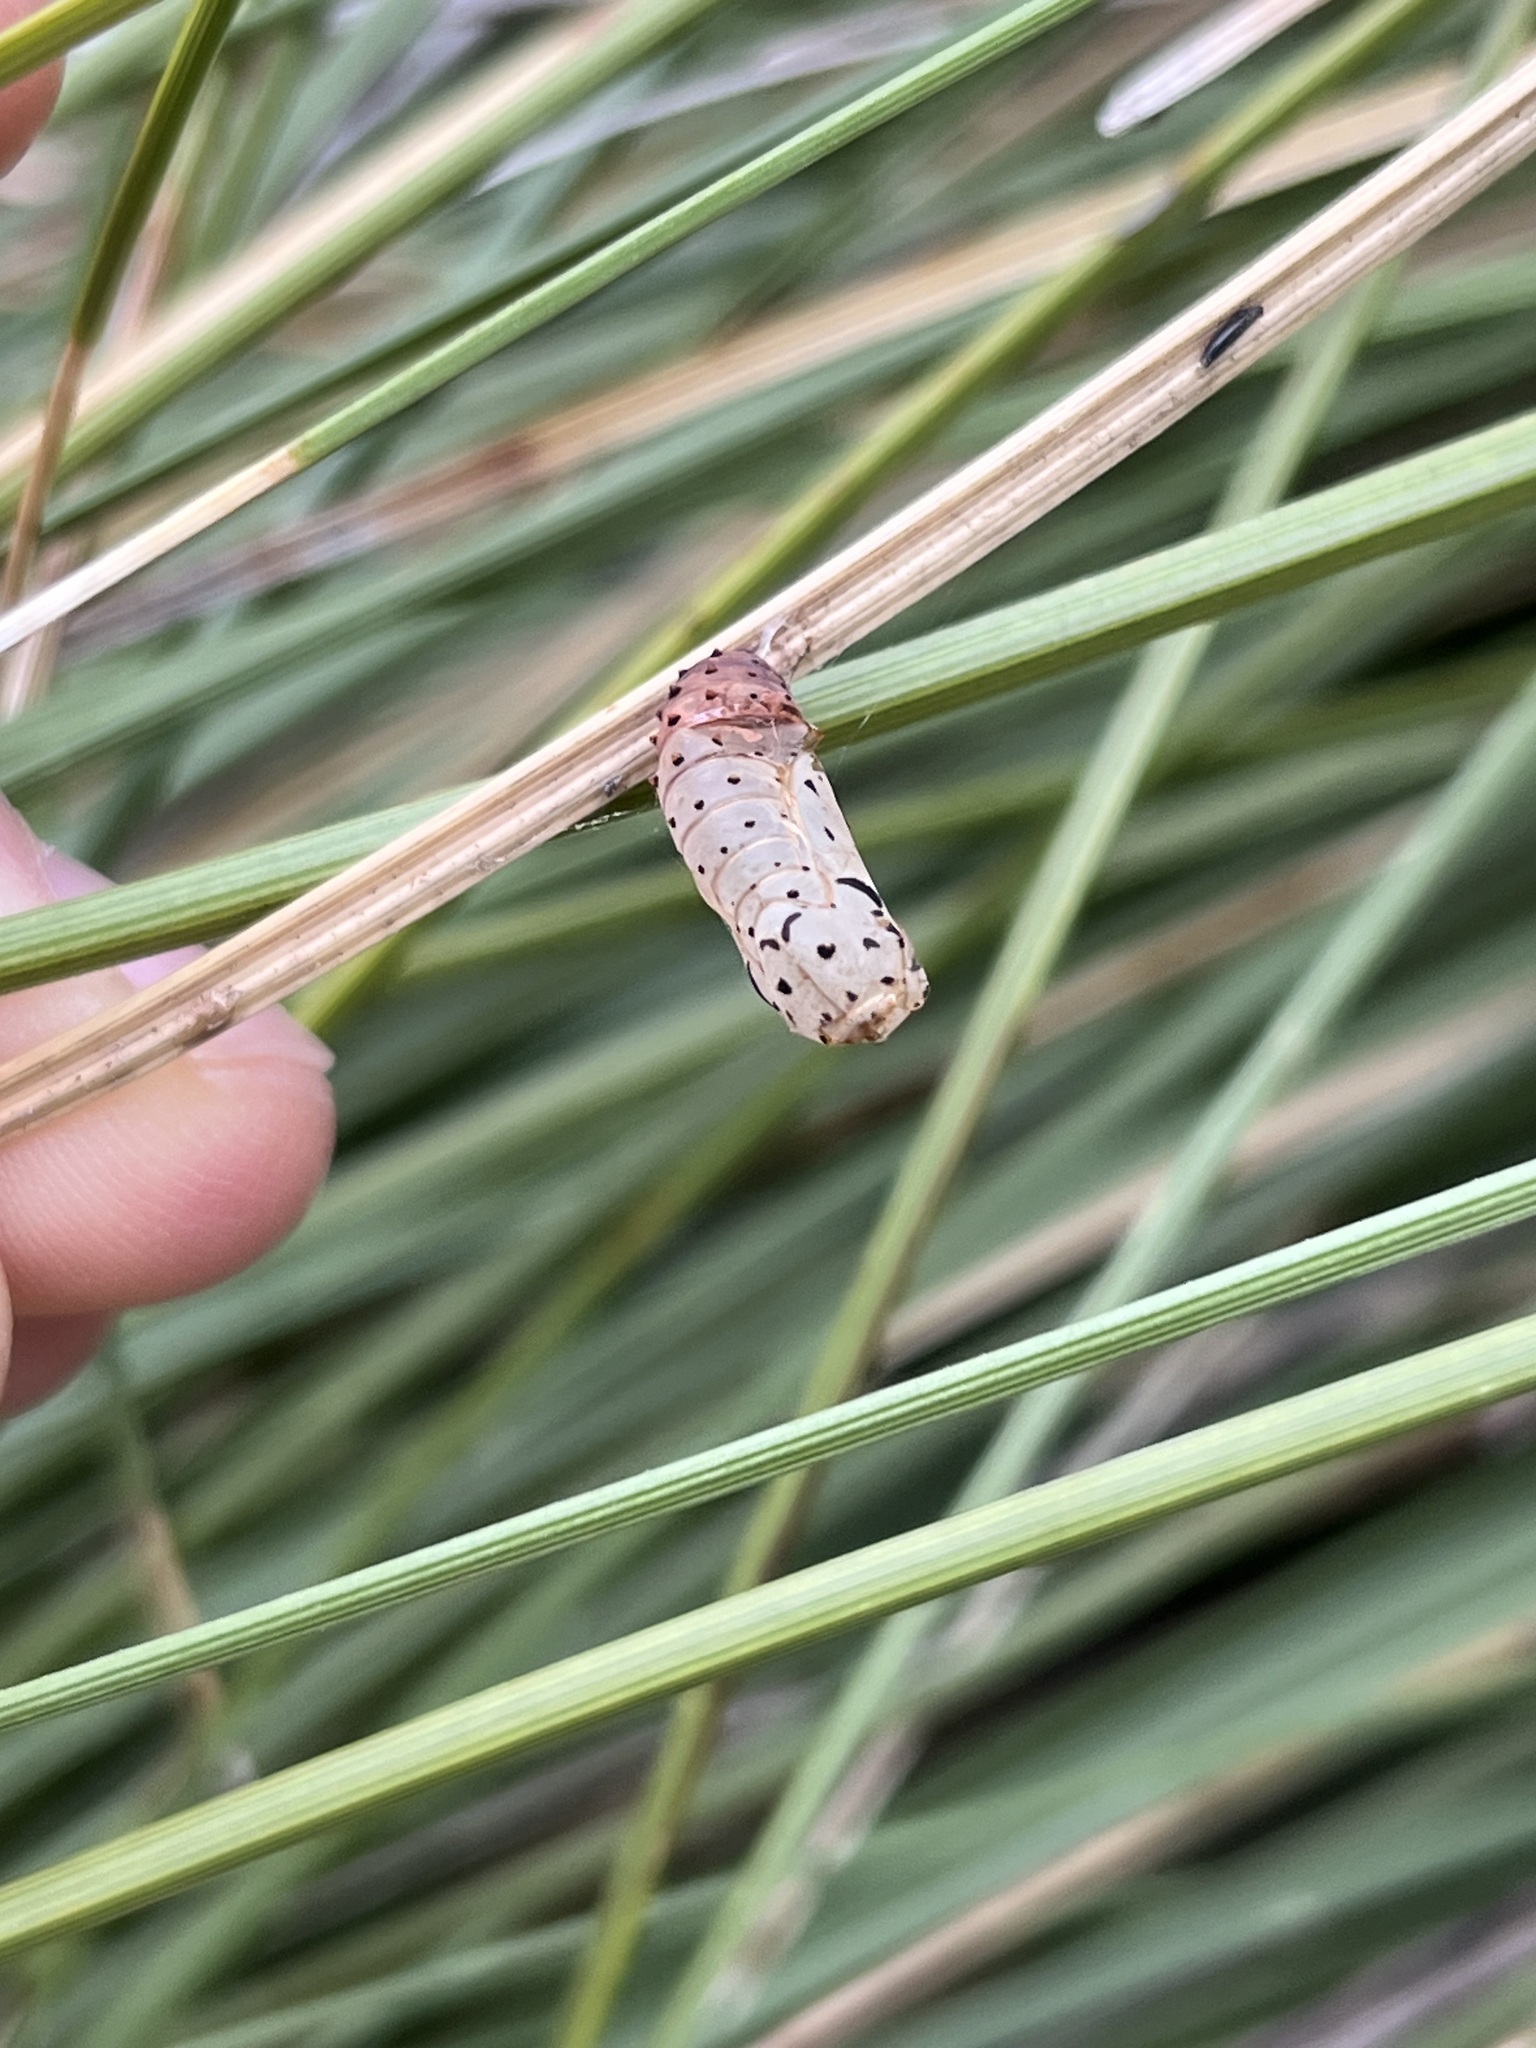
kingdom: Animalia
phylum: Arthropoda
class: Insecta
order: Lepidoptera
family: Nymphalidae
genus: Chlosyne
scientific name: Chlosyne janais
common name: Crimson patch
